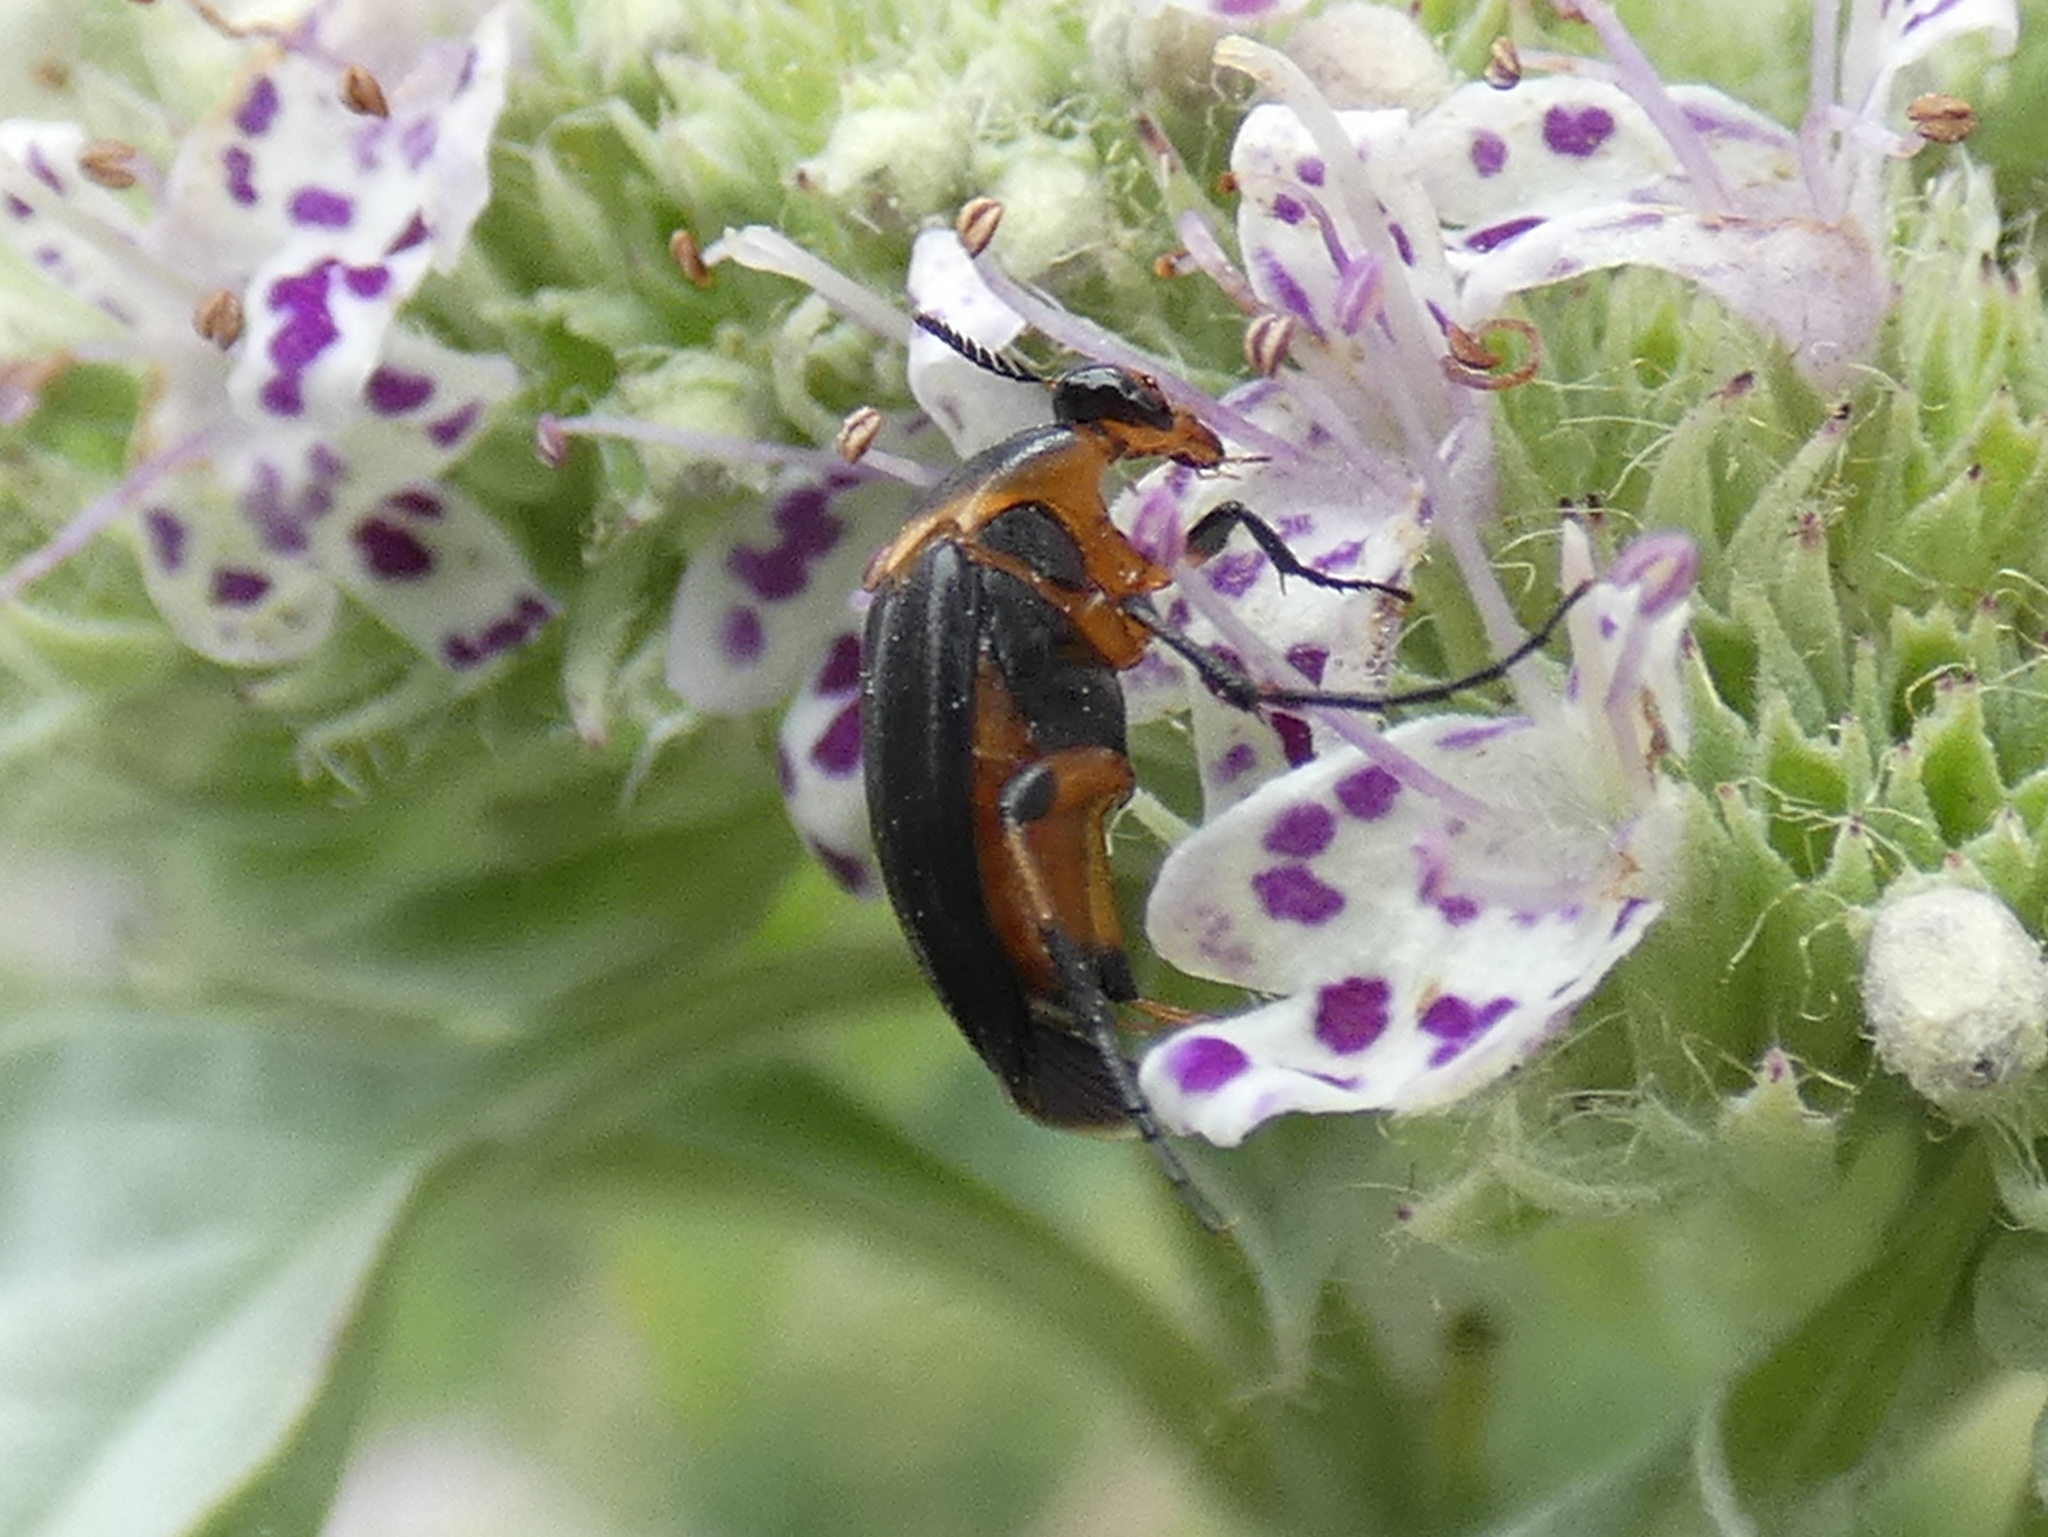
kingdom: Animalia
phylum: Arthropoda
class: Insecta
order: Coleoptera
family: Ripiphoridae
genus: Macrosiagon
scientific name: Macrosiagon limbatum
